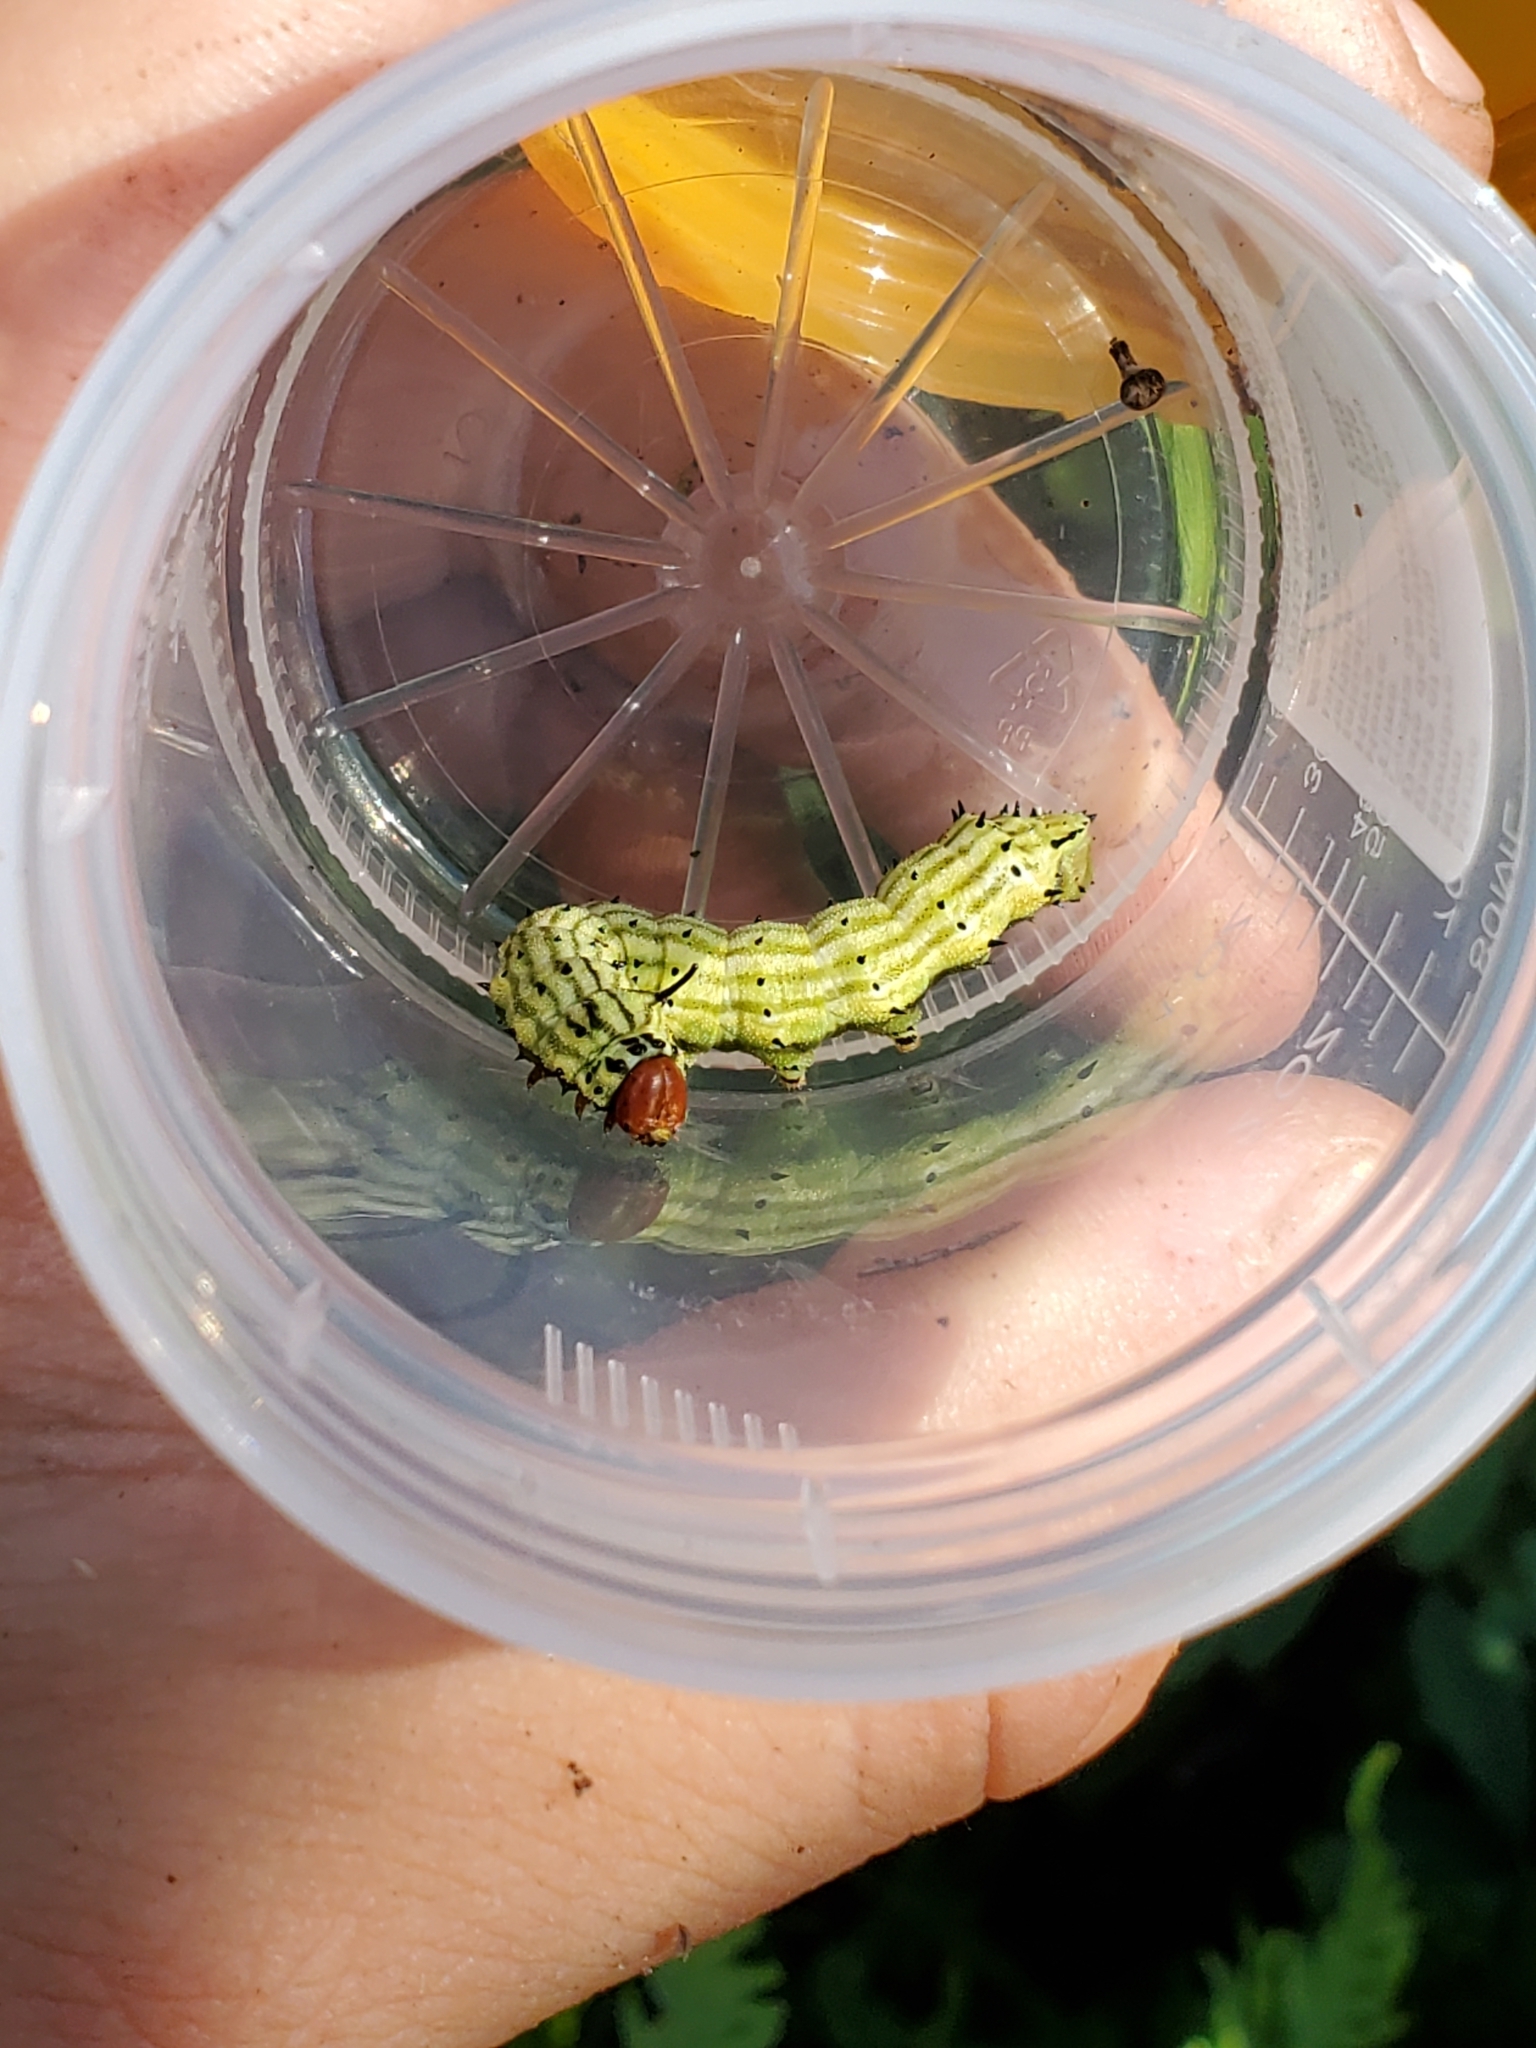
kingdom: Animalia
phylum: Arthropoda
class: Insecta
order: Lepidoptera
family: Saturniidae
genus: Dryocampa
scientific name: Dryocampa rubicunda
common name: Rosy maple moth
